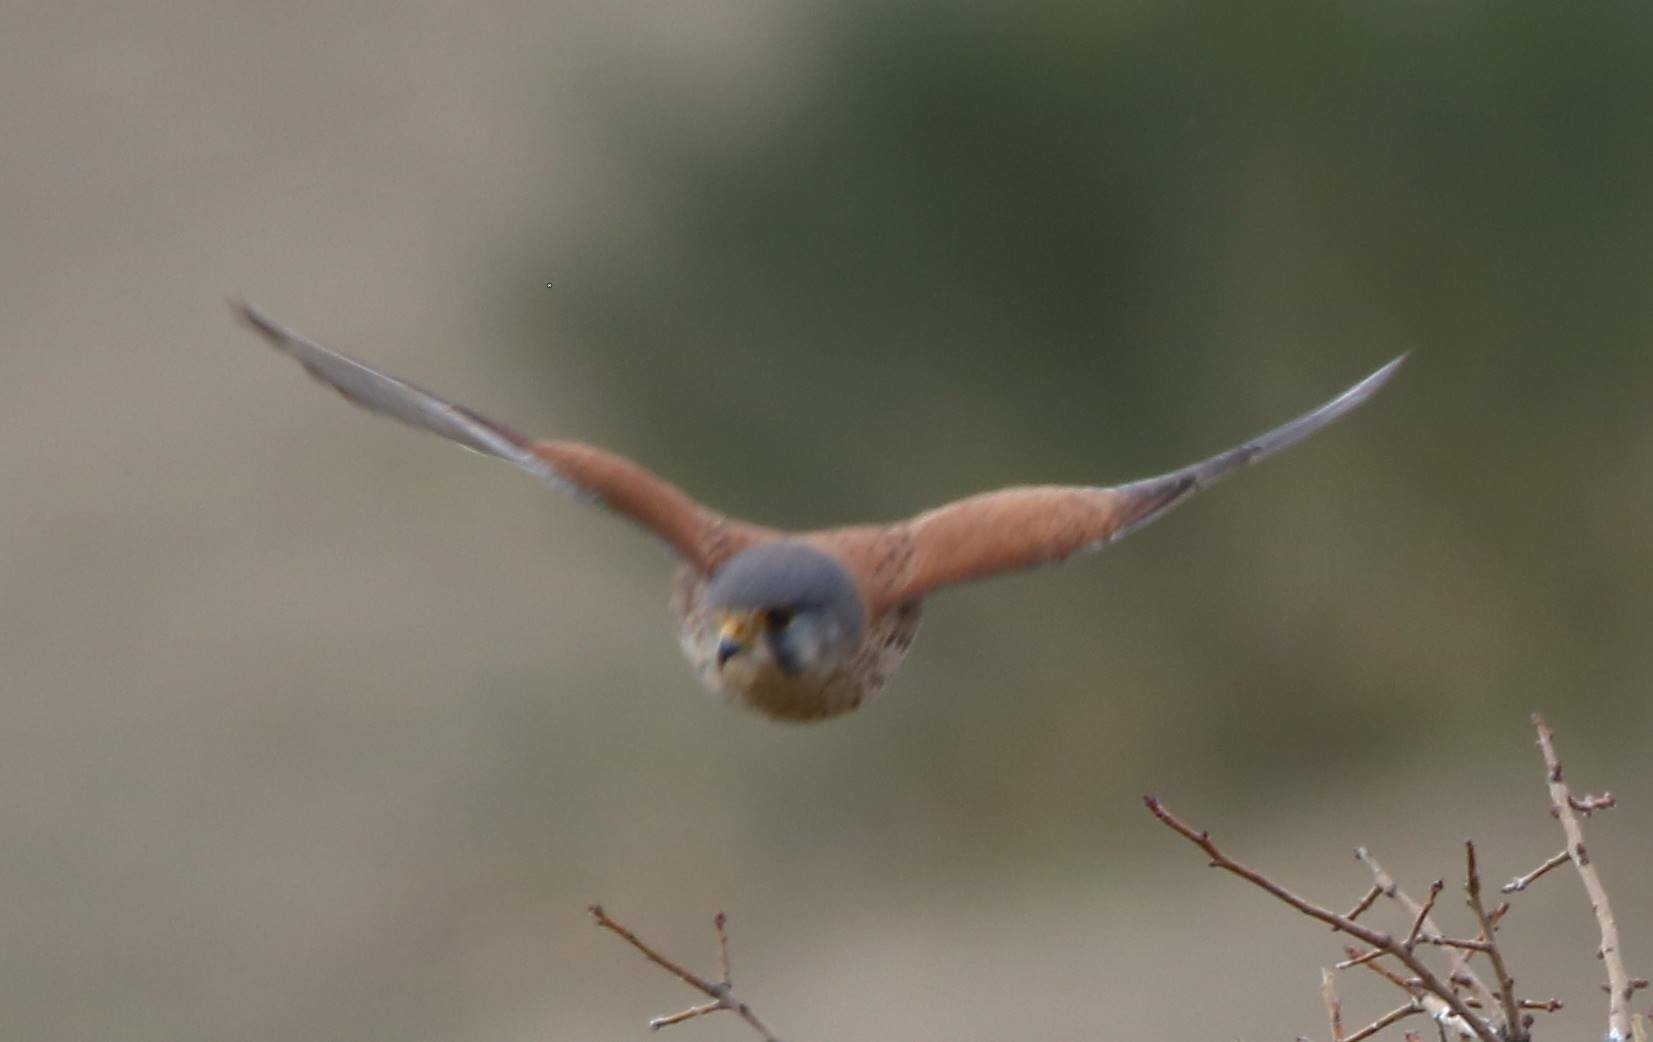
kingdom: Animalia
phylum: Chordata
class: Aves
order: Falconiformes
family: Falconidae
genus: Falco
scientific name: Falco tinnunculus
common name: Common kestrel
